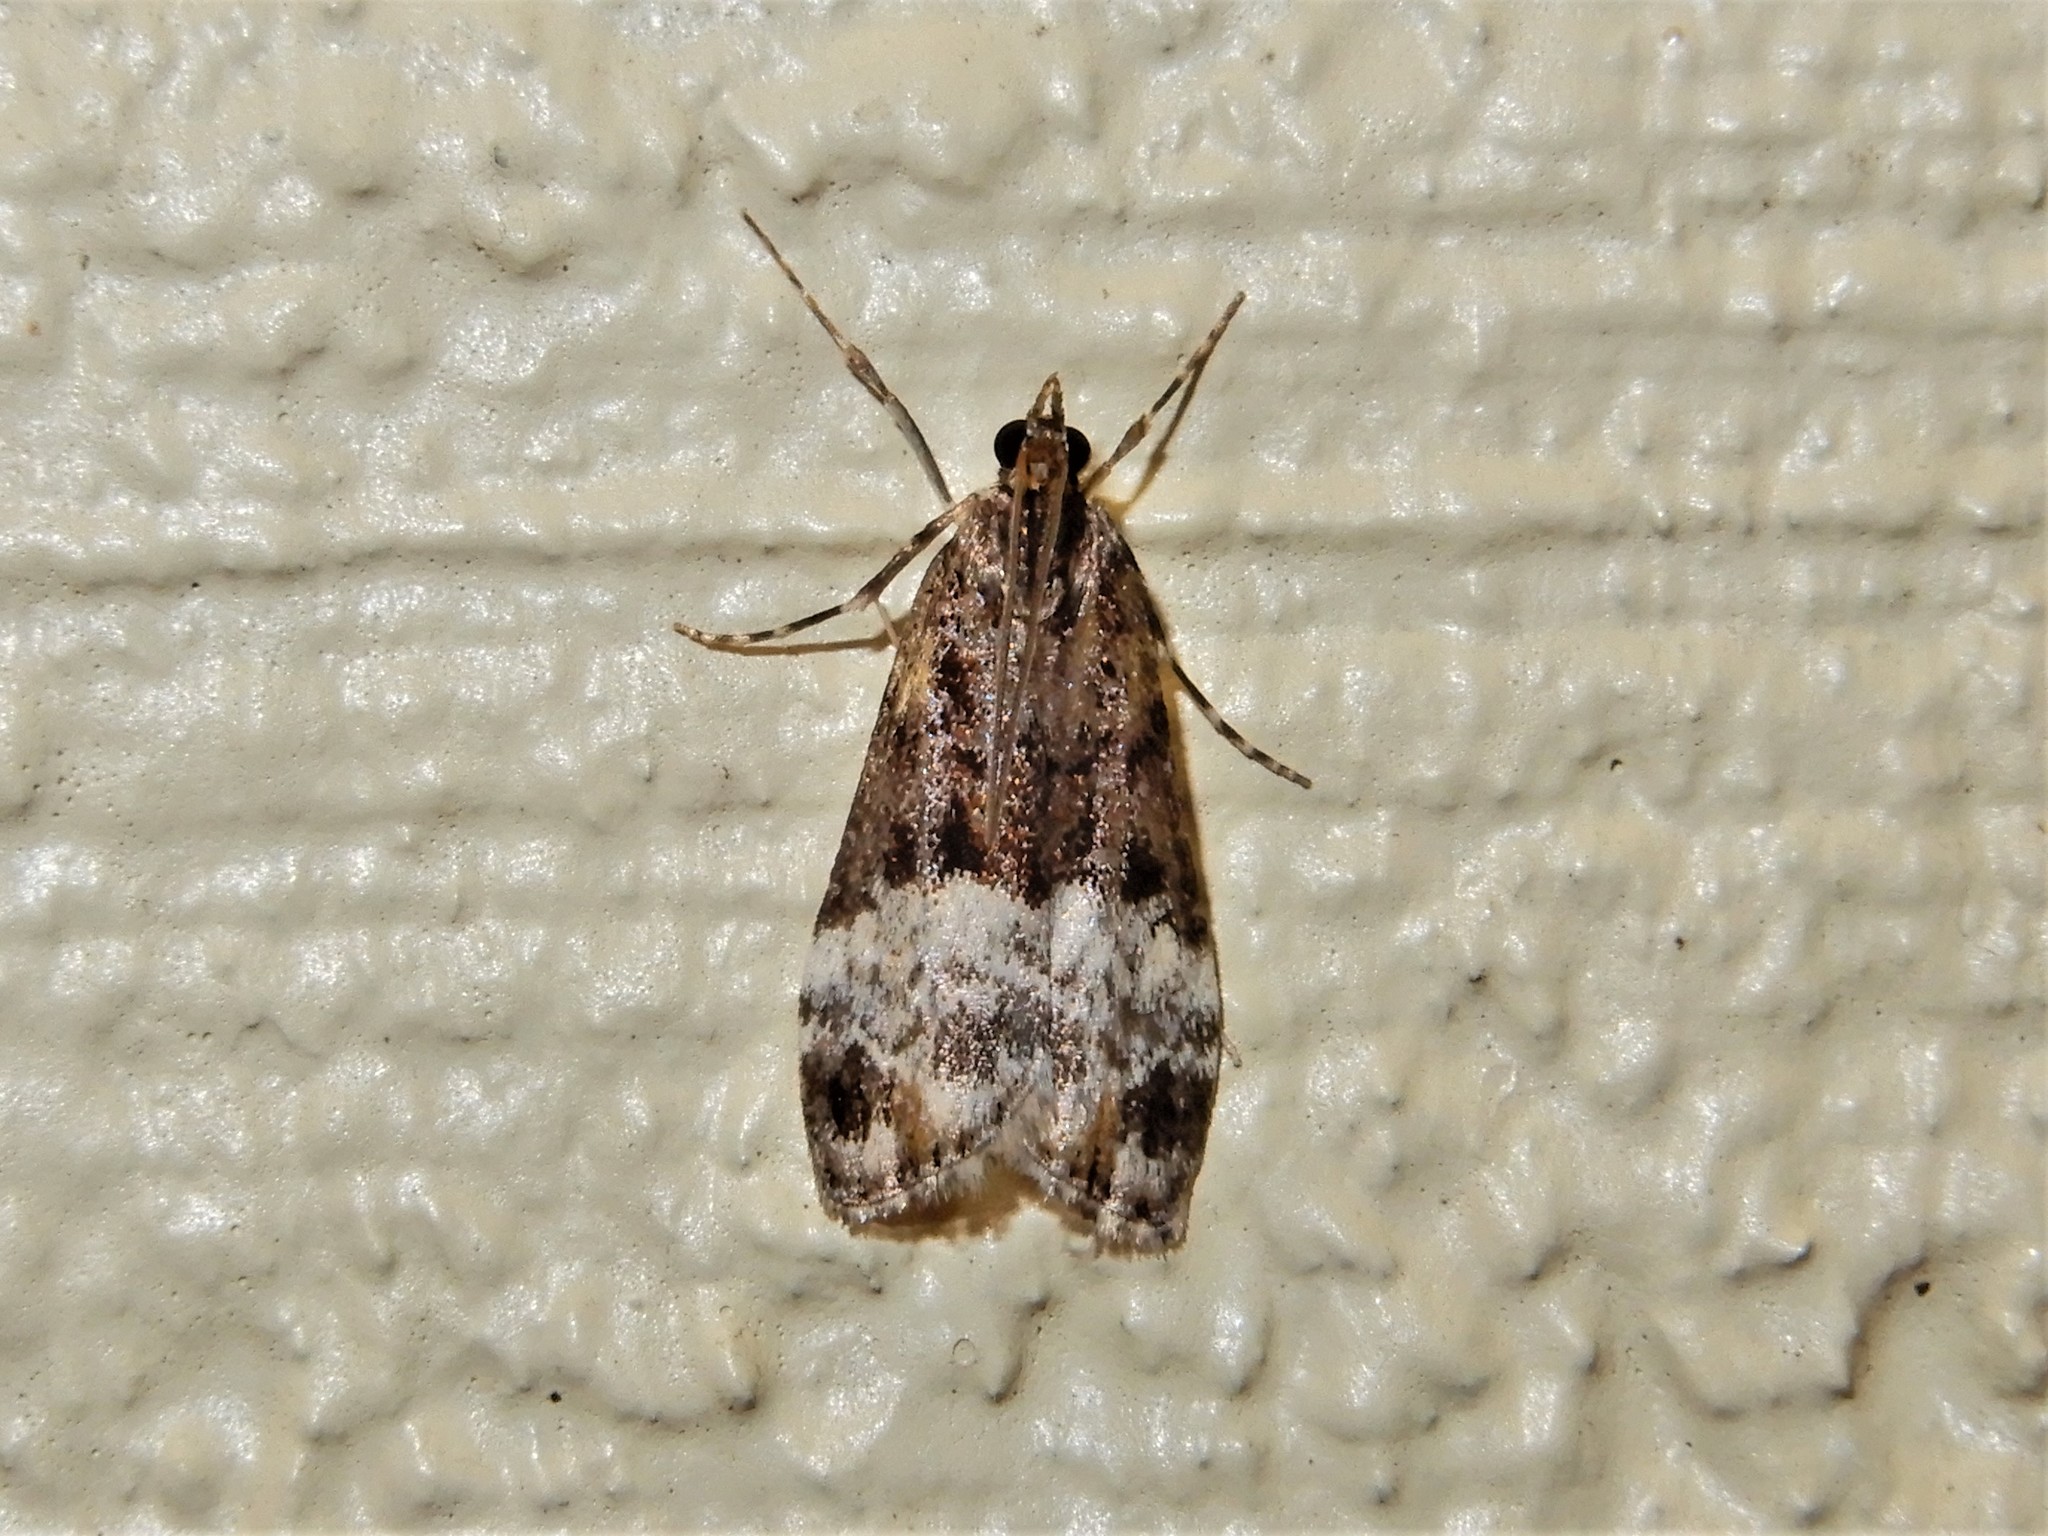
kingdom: Animalia
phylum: Arthropoda
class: Insecta
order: Lepidoptera
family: Crambidae
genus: Scoparia
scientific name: Scoparia minusculalis
